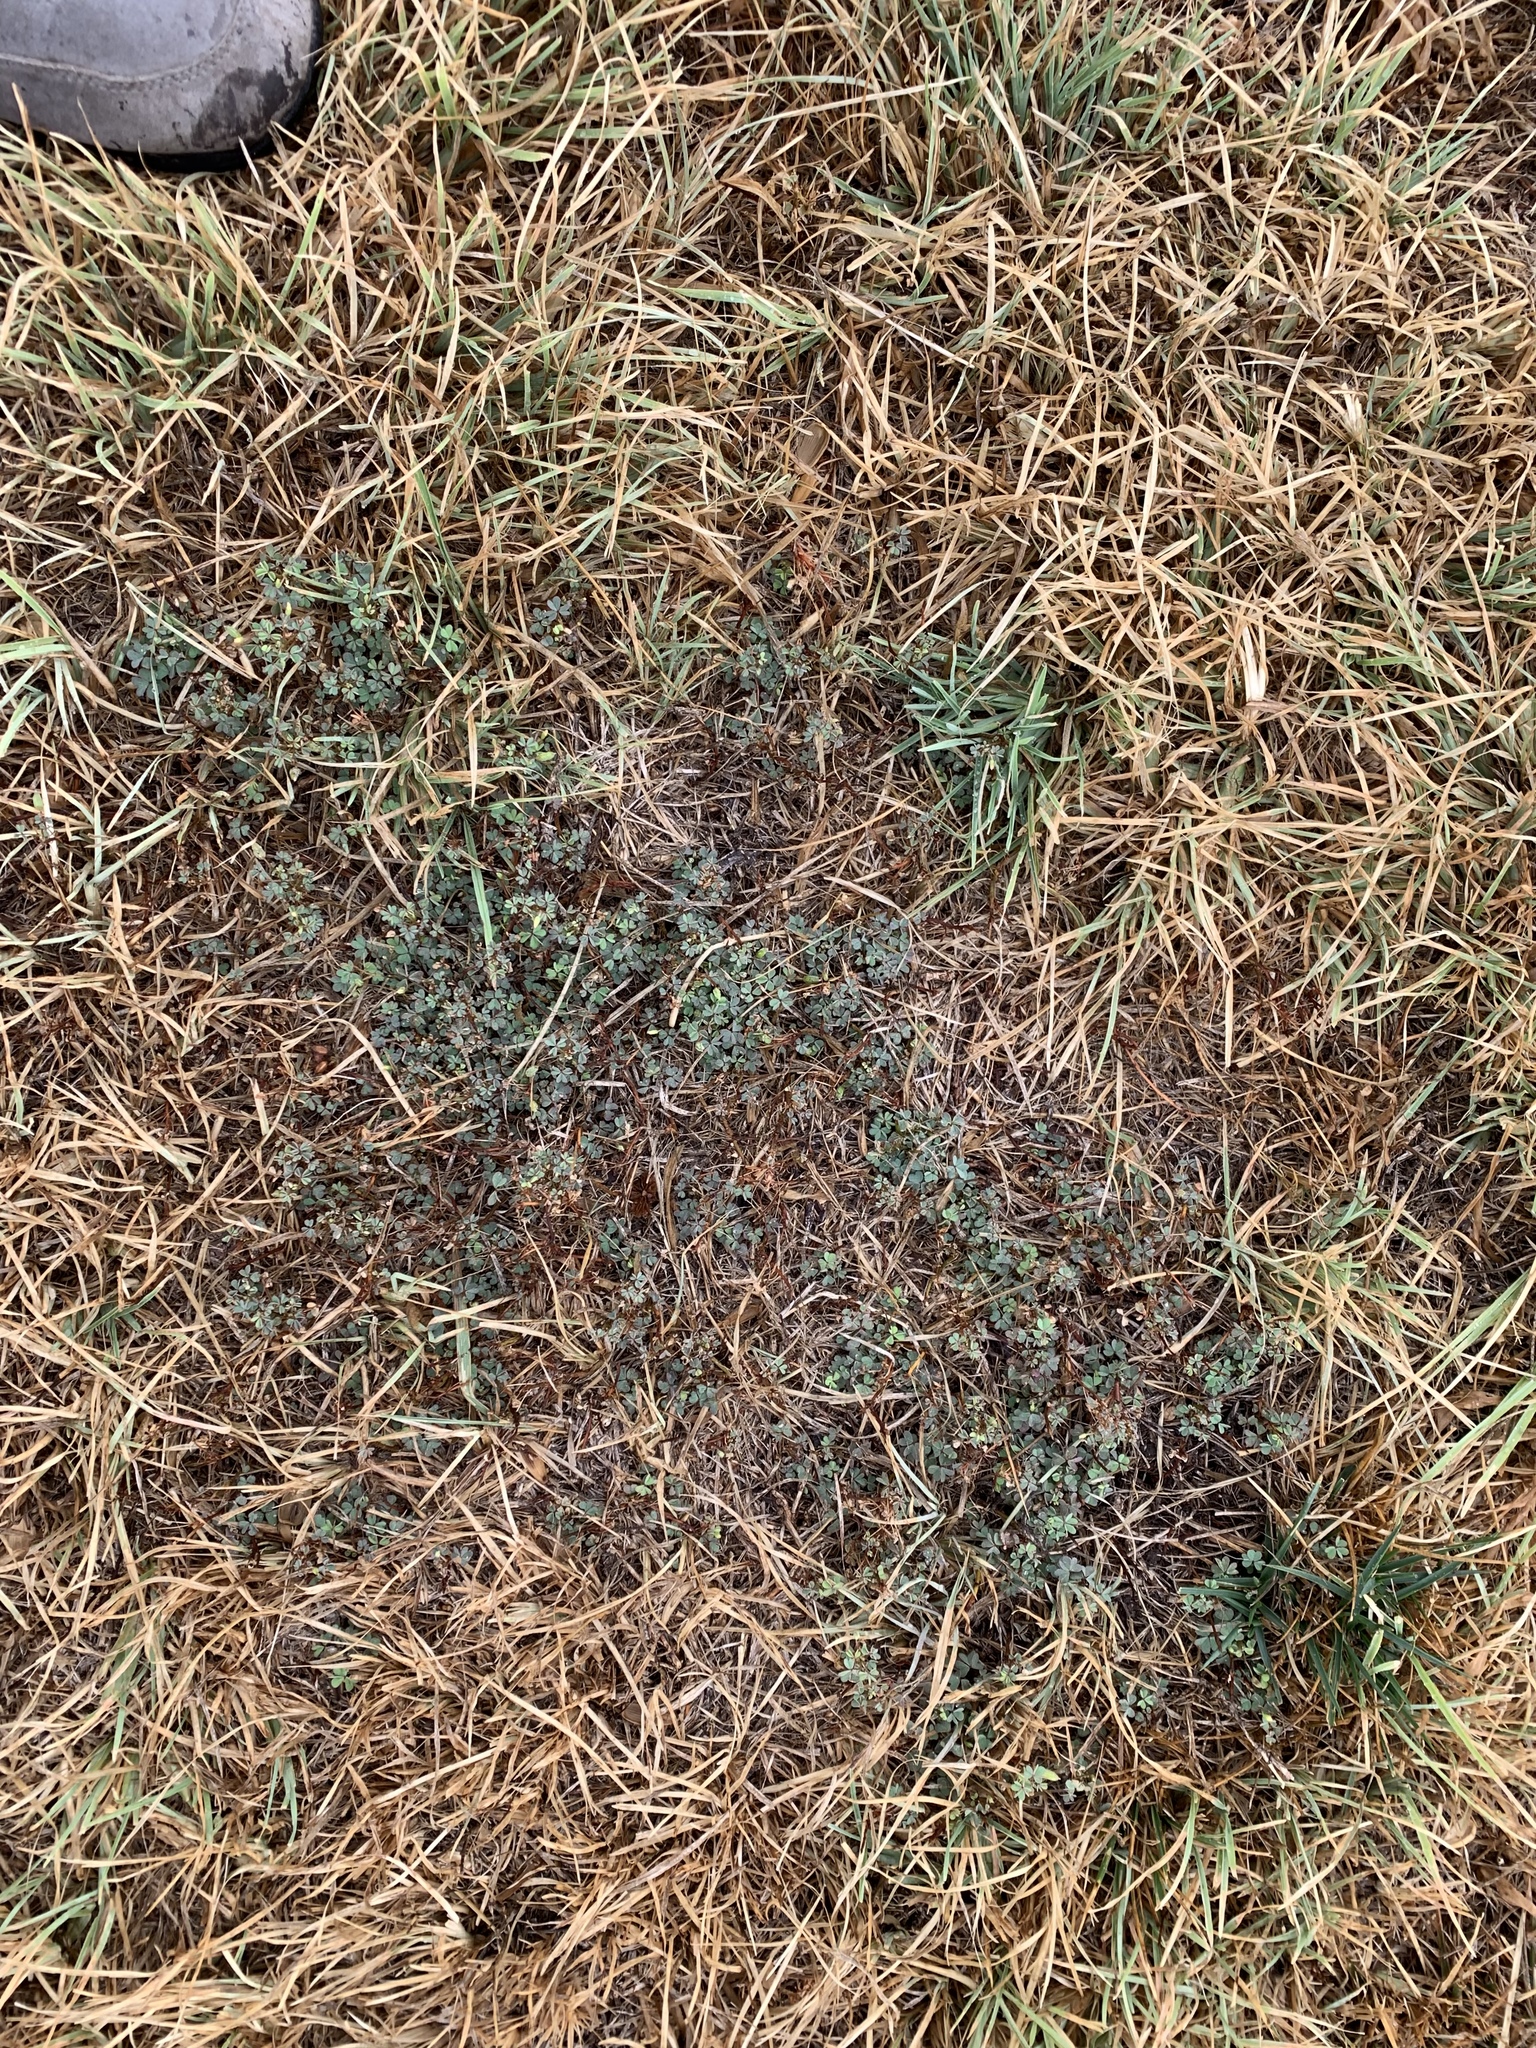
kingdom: Plantae
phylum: Tracheophyta
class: Magnoliopsida
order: Oxalidales
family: Oxalidaceae
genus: Oxalis
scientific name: Oxalis corniculata
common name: Procumbent yellow-sorrel
